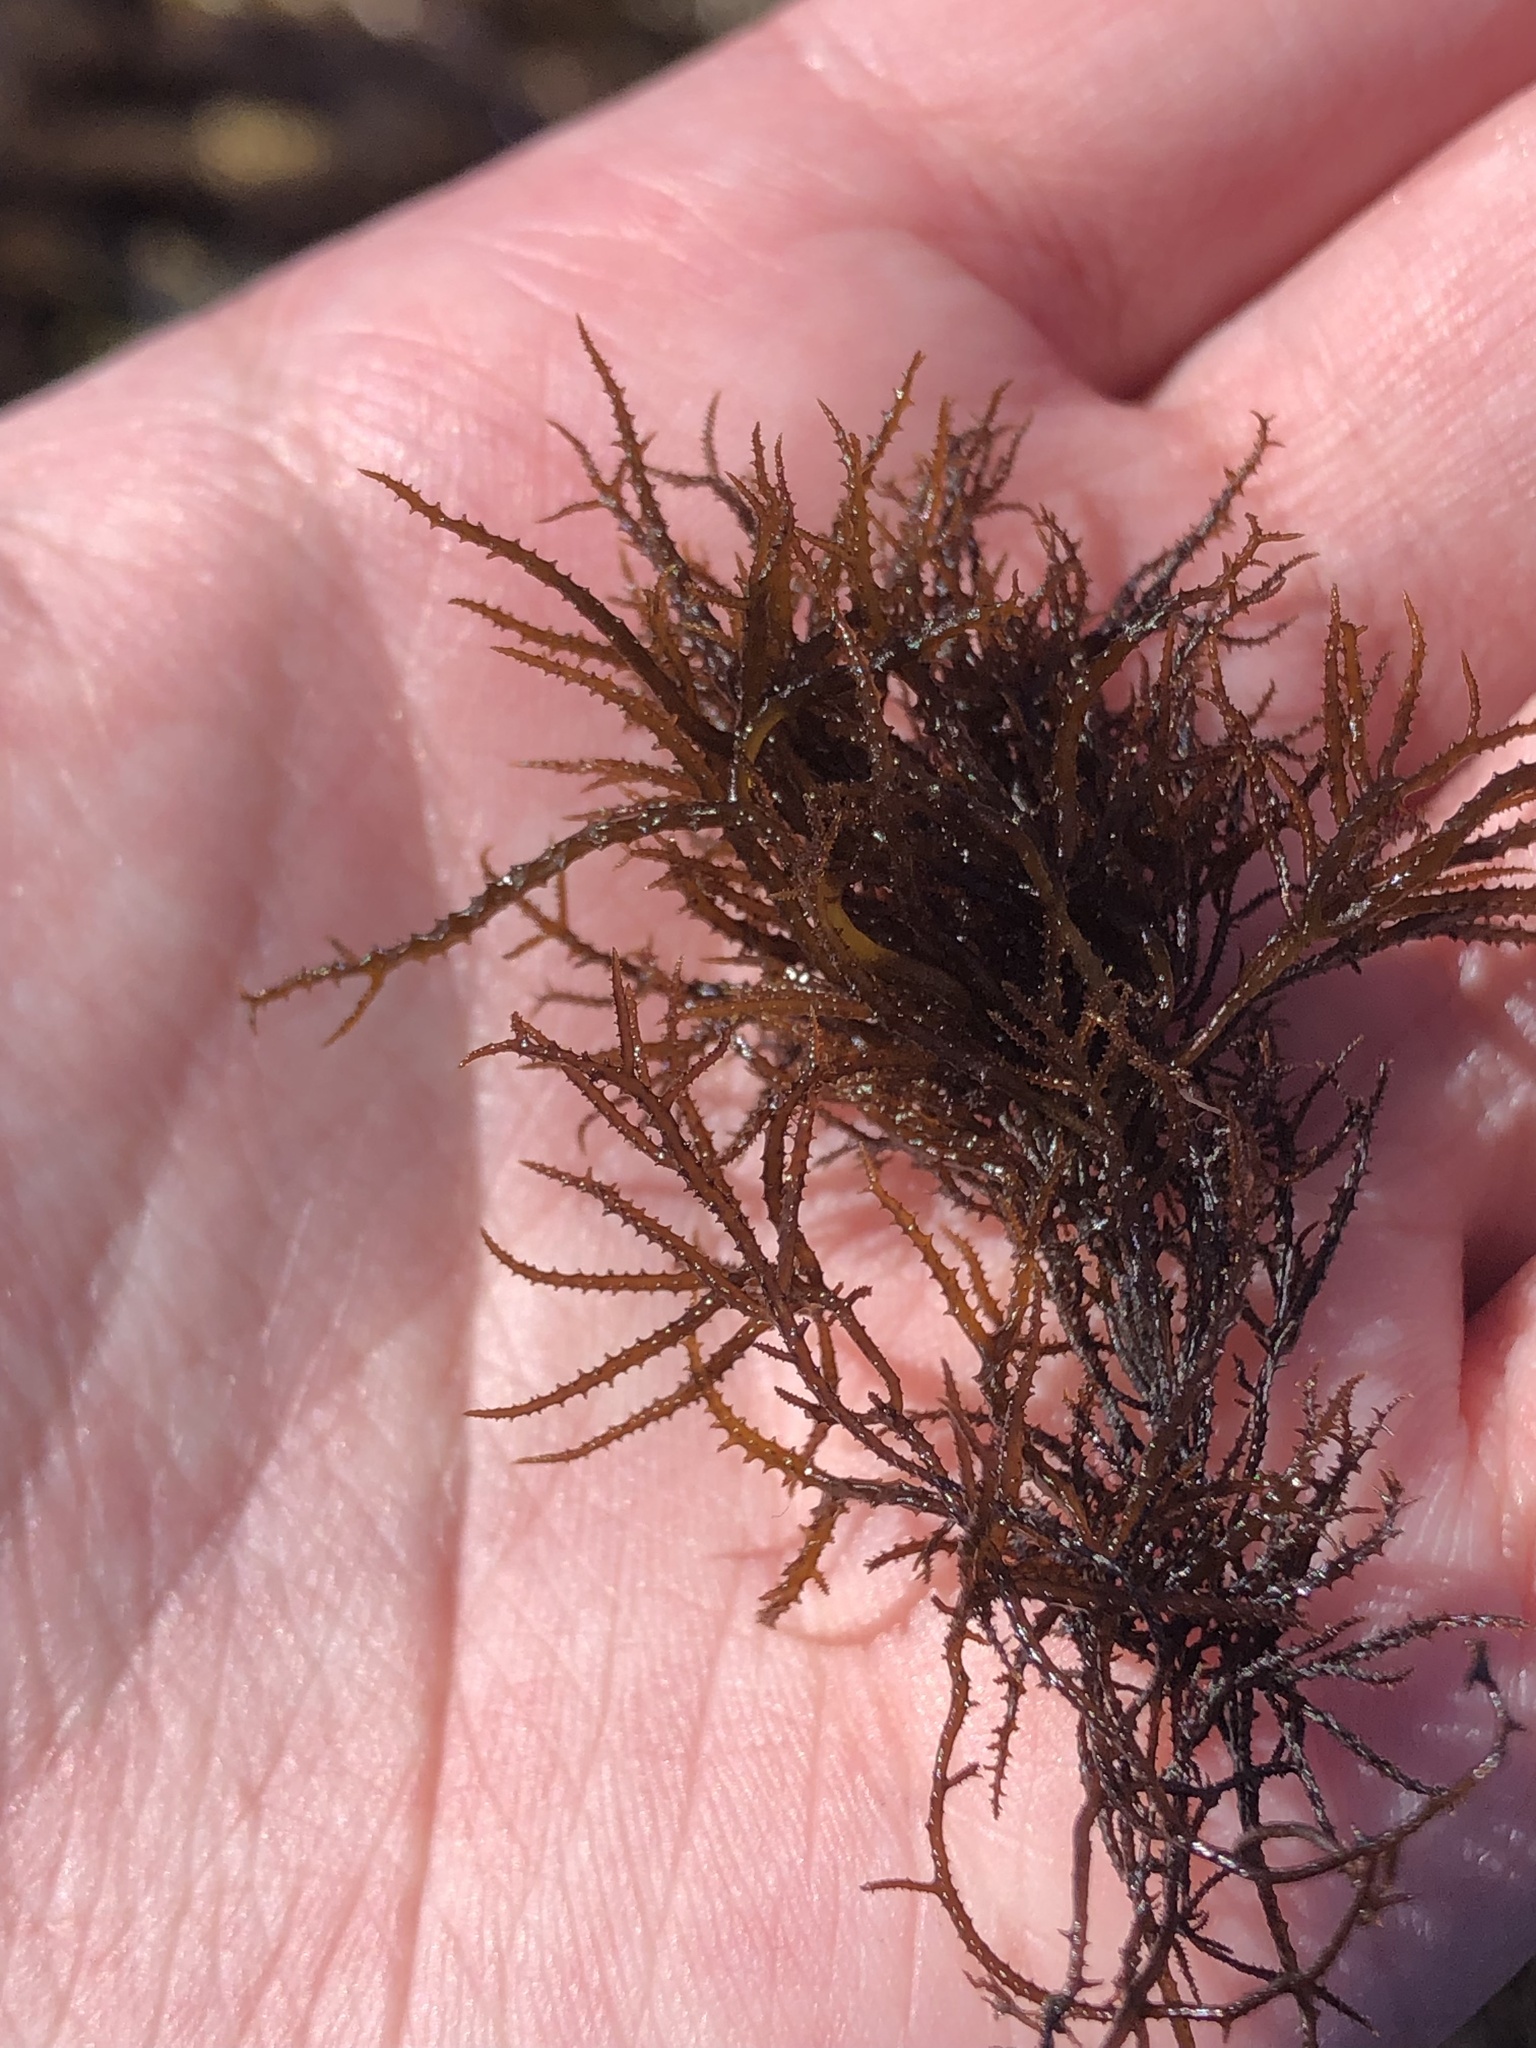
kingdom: Plantae
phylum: Rhodophyta
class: Florideophyceae
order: Gigartinales
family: Endocladiaceae
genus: Endocladia
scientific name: Endocladia muricata
